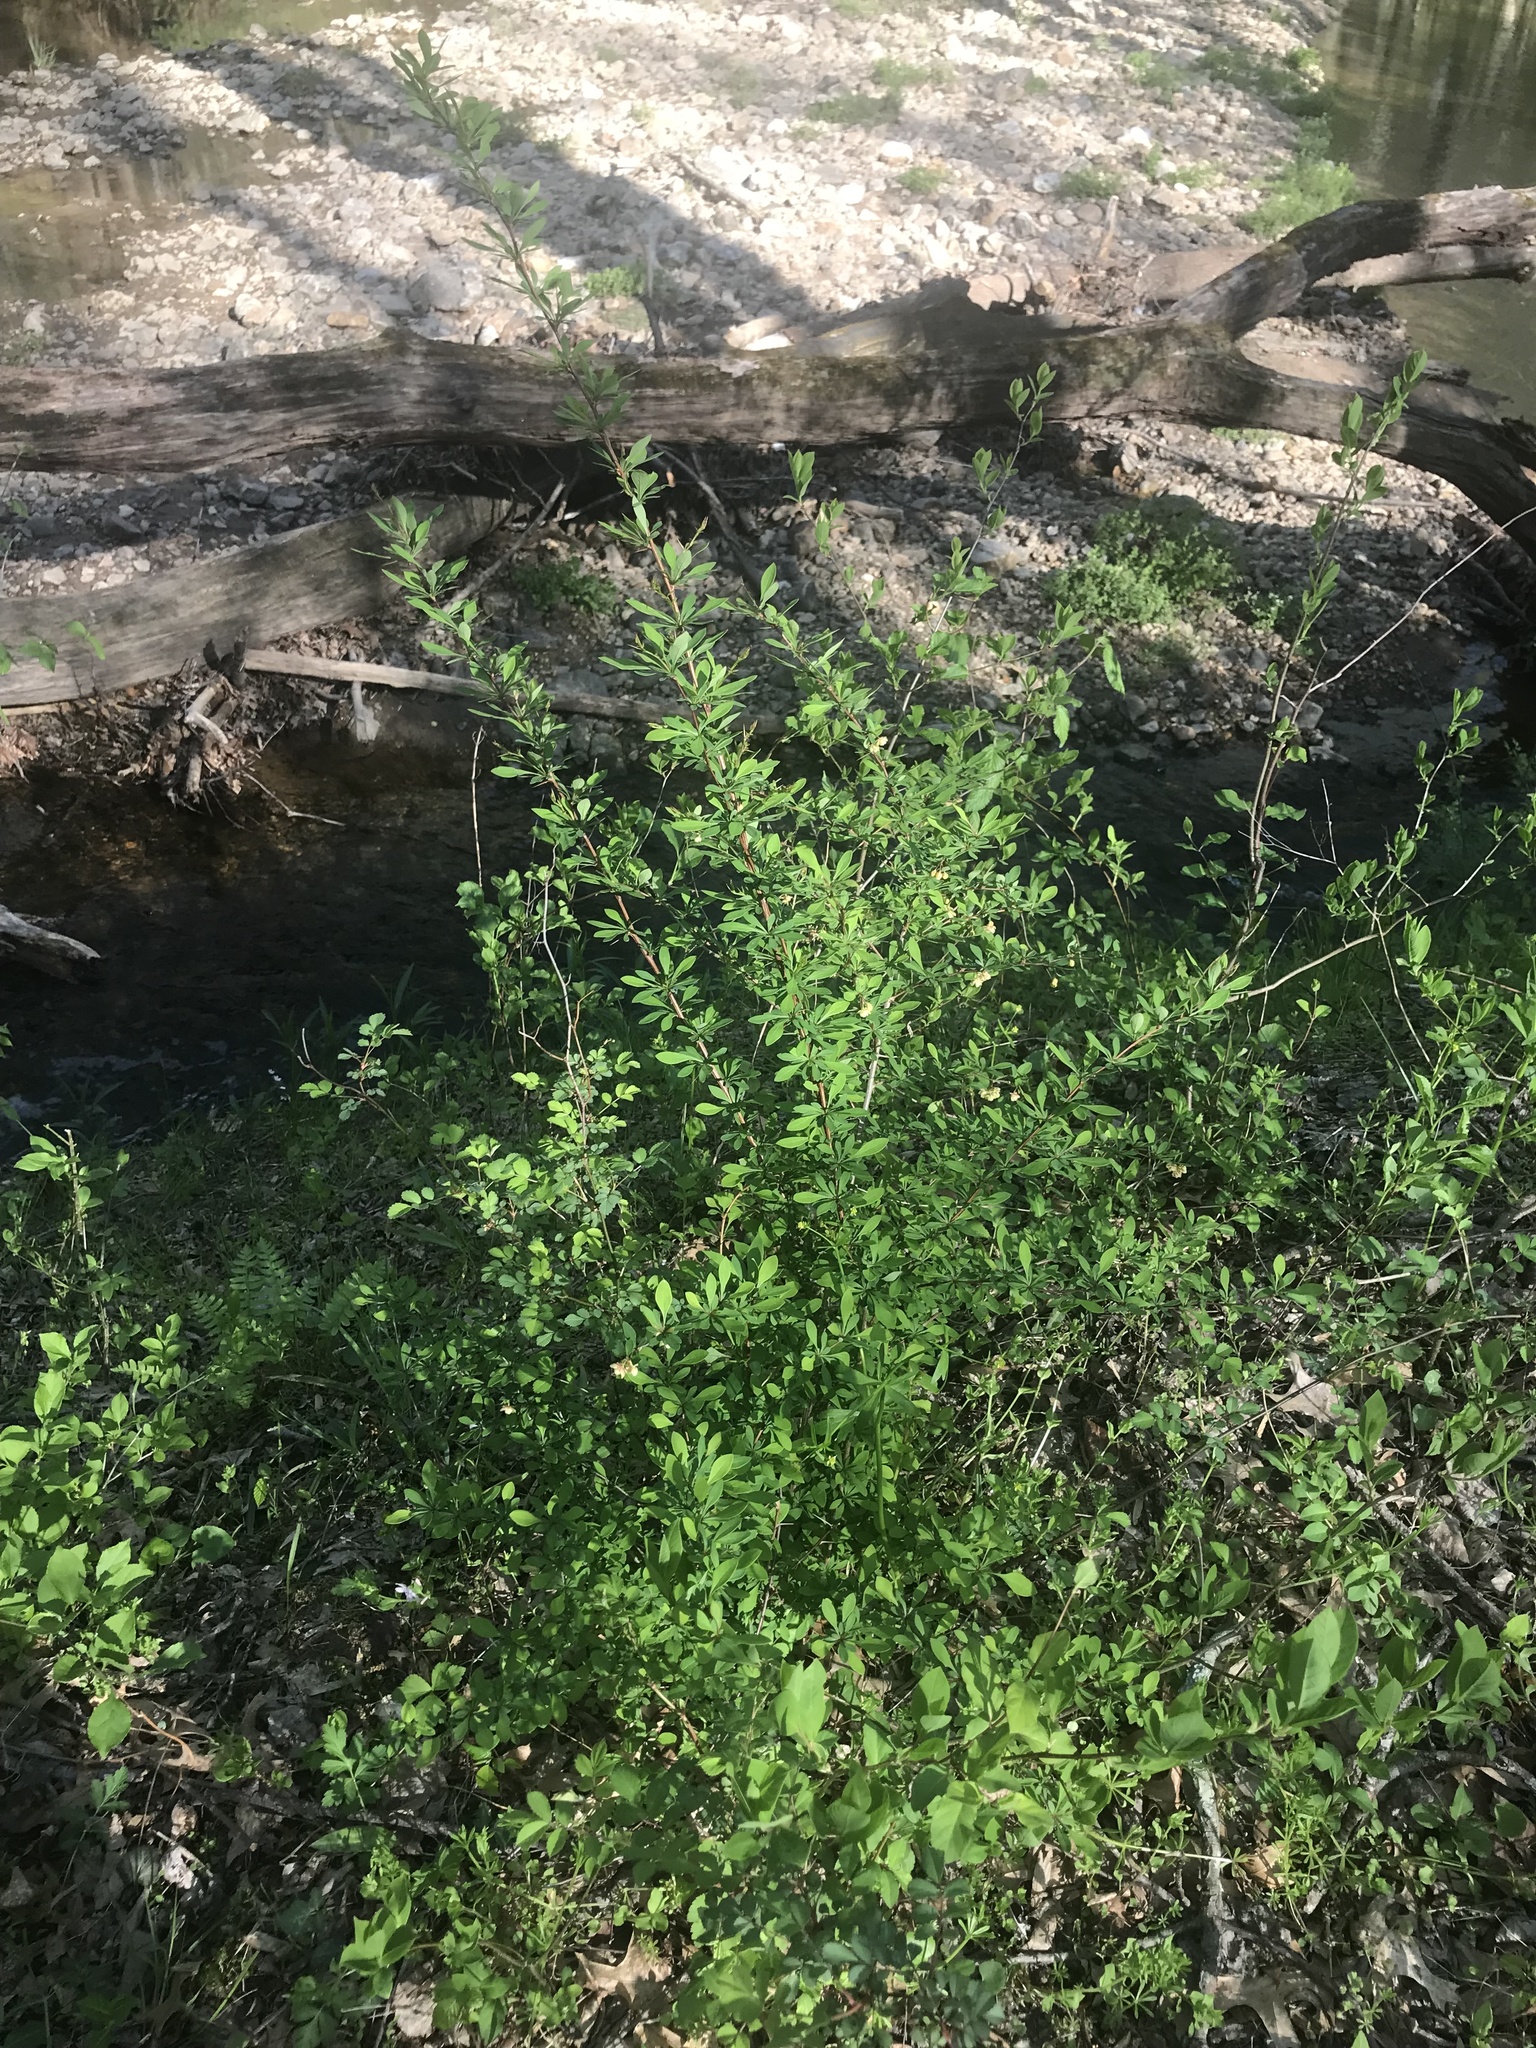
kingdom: Plantae
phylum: Tracheophyta
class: Magnoliopsida
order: Ranunculales
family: Berberidaceae
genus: Berberis
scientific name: Berberis thunbergii
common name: Japanese barberry
